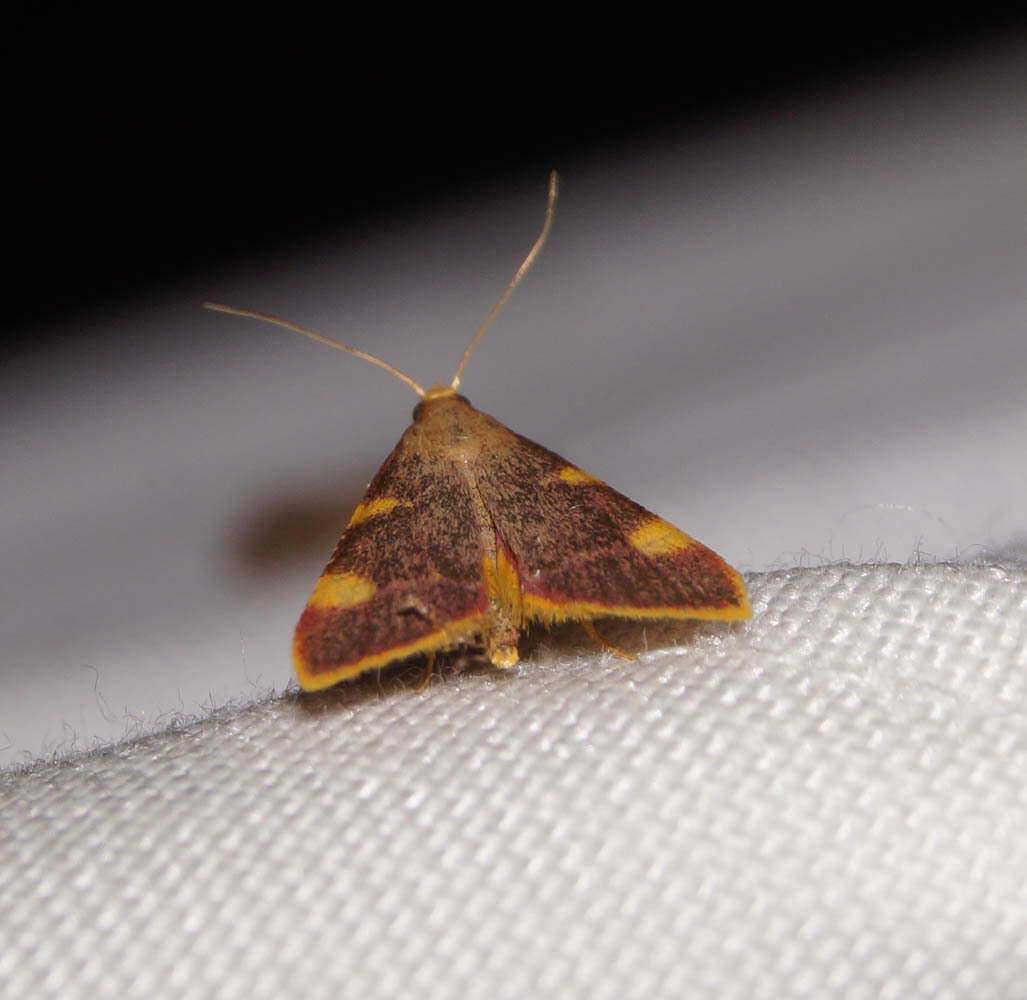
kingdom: Animalia
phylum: Arthropoda
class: Insecta
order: Lepidoptera
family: Pyralidae
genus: Hypsopygia
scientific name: Hypsopygia costalis
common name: Gold triangle
